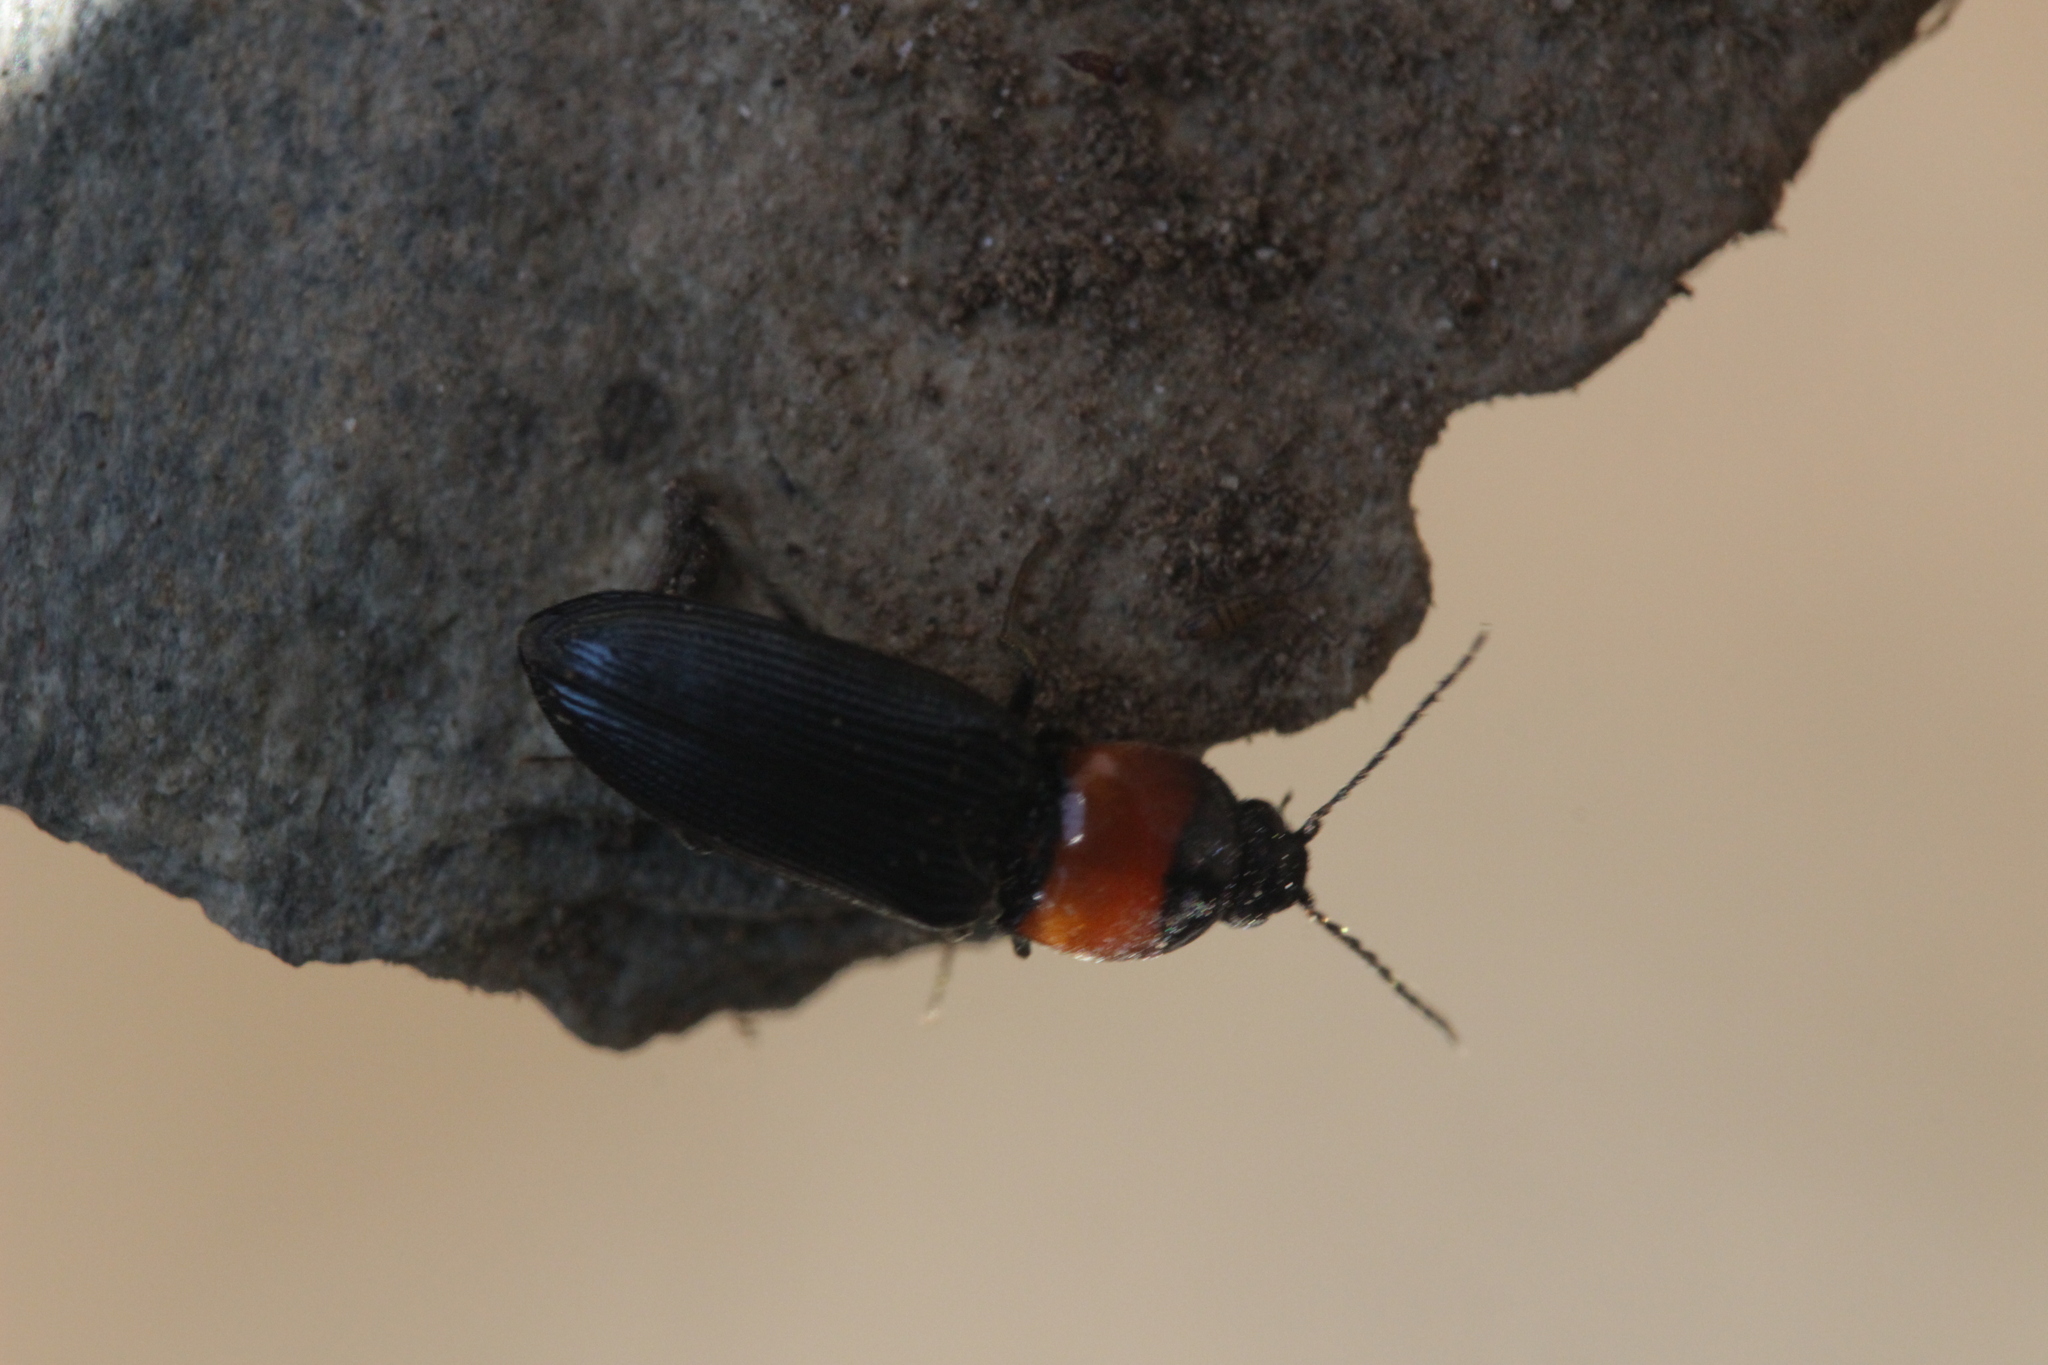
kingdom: Animalia
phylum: Arthropoda
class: Insecta
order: Coleoptera
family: Elateridae
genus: Cardiophorus
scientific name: Cardiophorus gramineus
